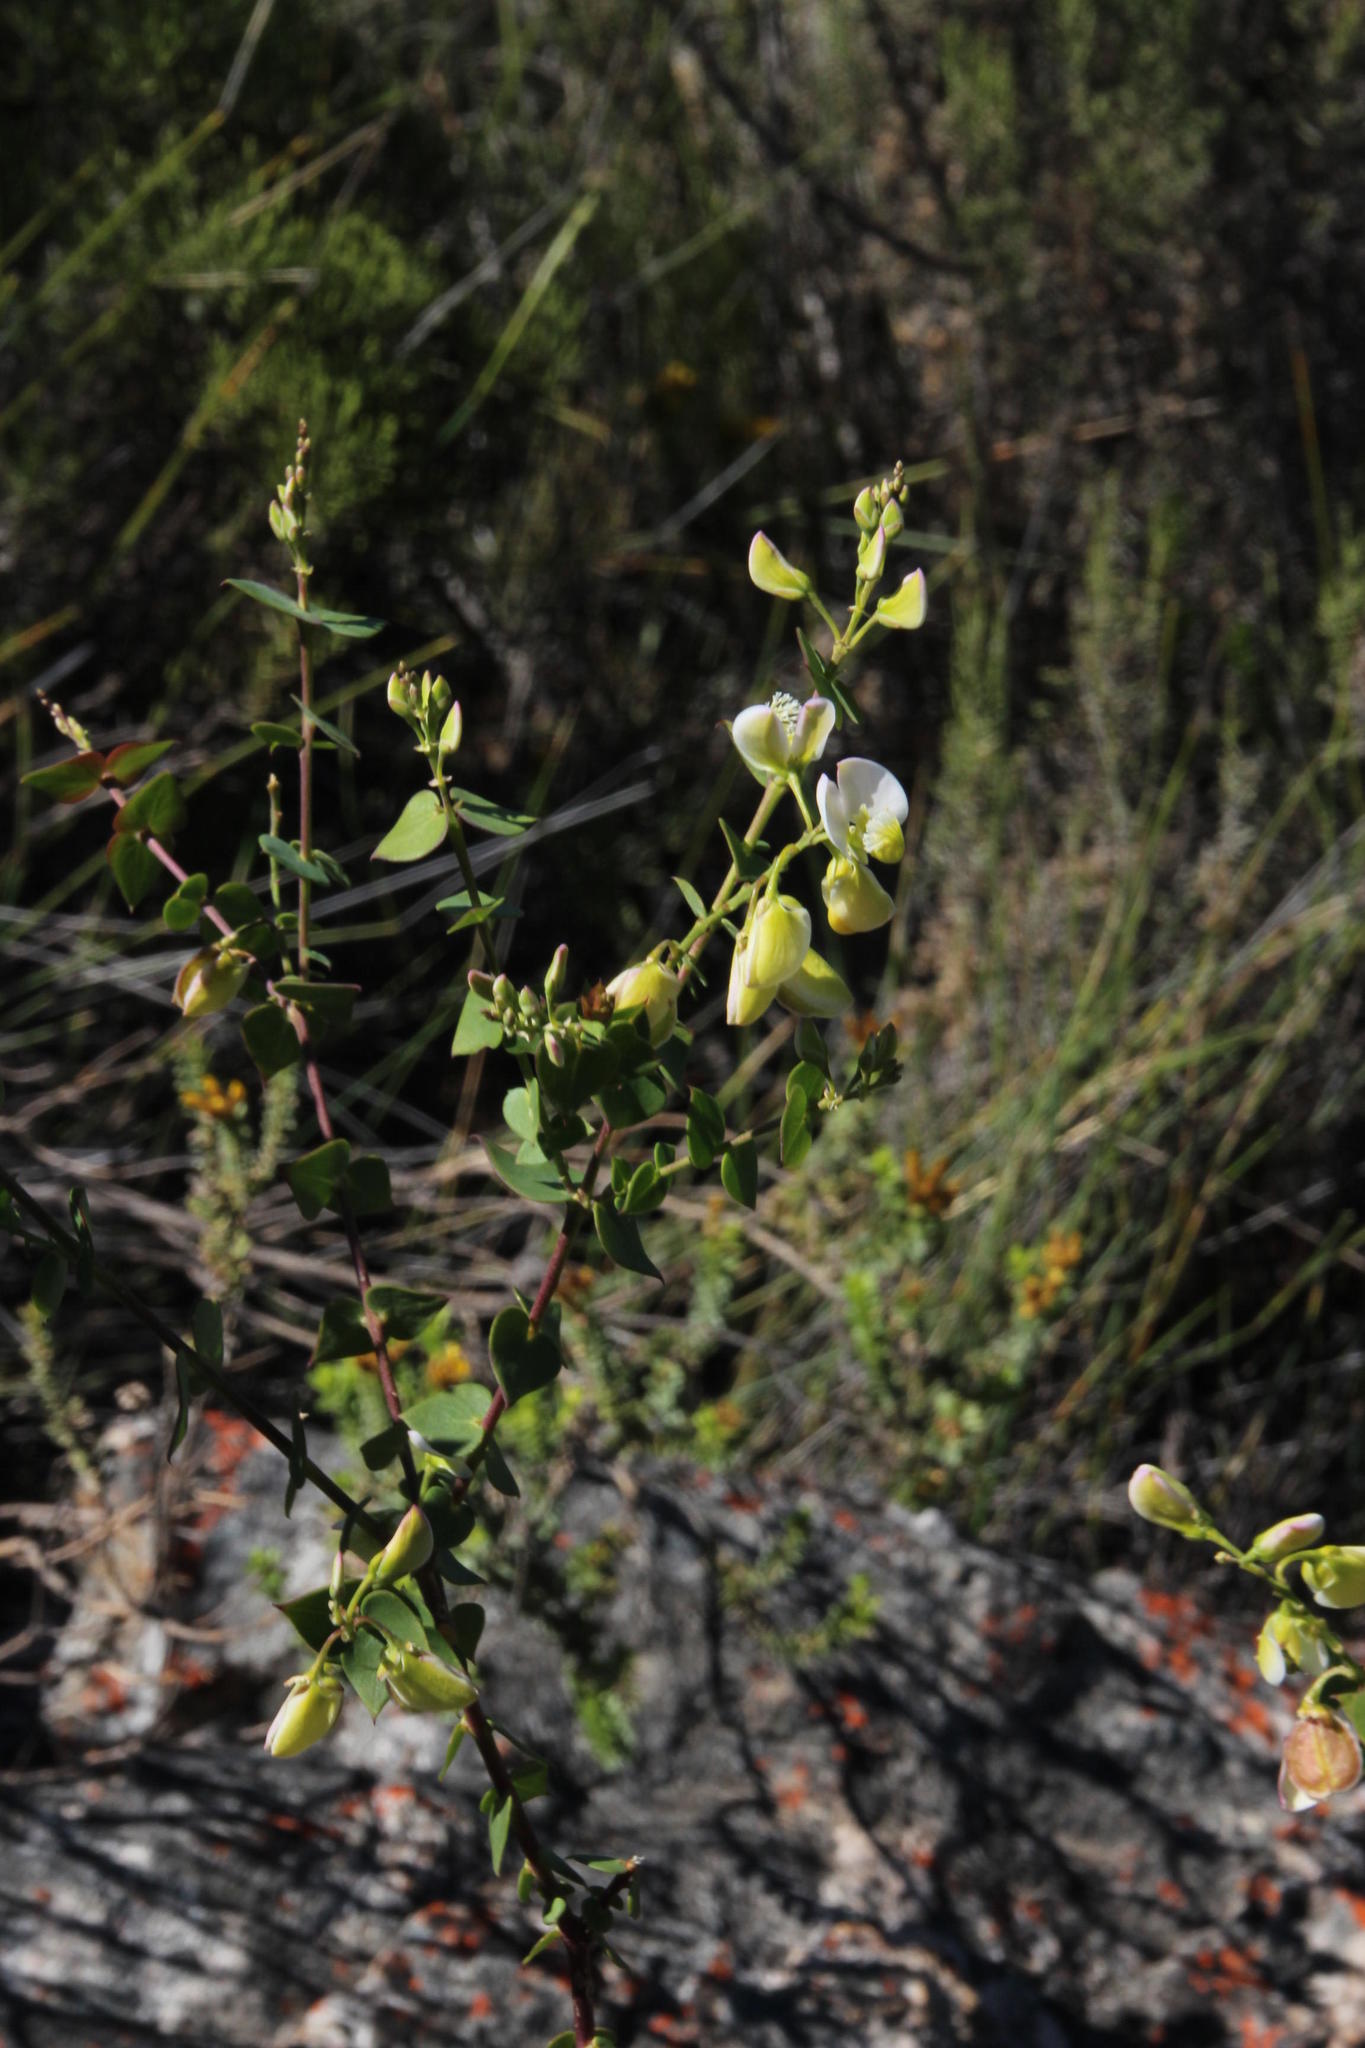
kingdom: Plantae
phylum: Tracheophyta
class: Magnoliopsida
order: Fabales
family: Polygalaceae
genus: Polygala
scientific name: Polygala fruticosa
